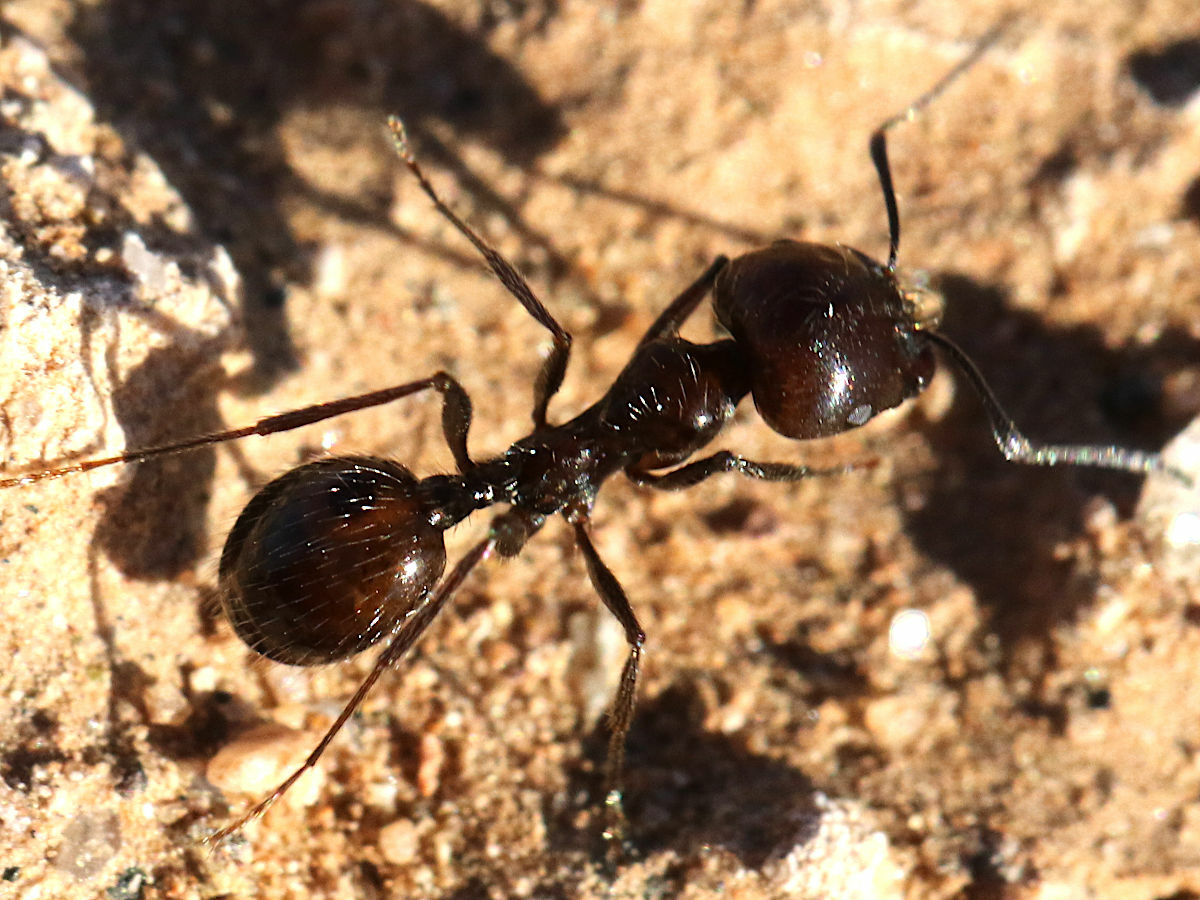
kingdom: Animalia
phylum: Arthropoda
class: Insecta
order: Hymenoptera
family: Formicidae
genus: Messor
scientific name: Messor pergandei
